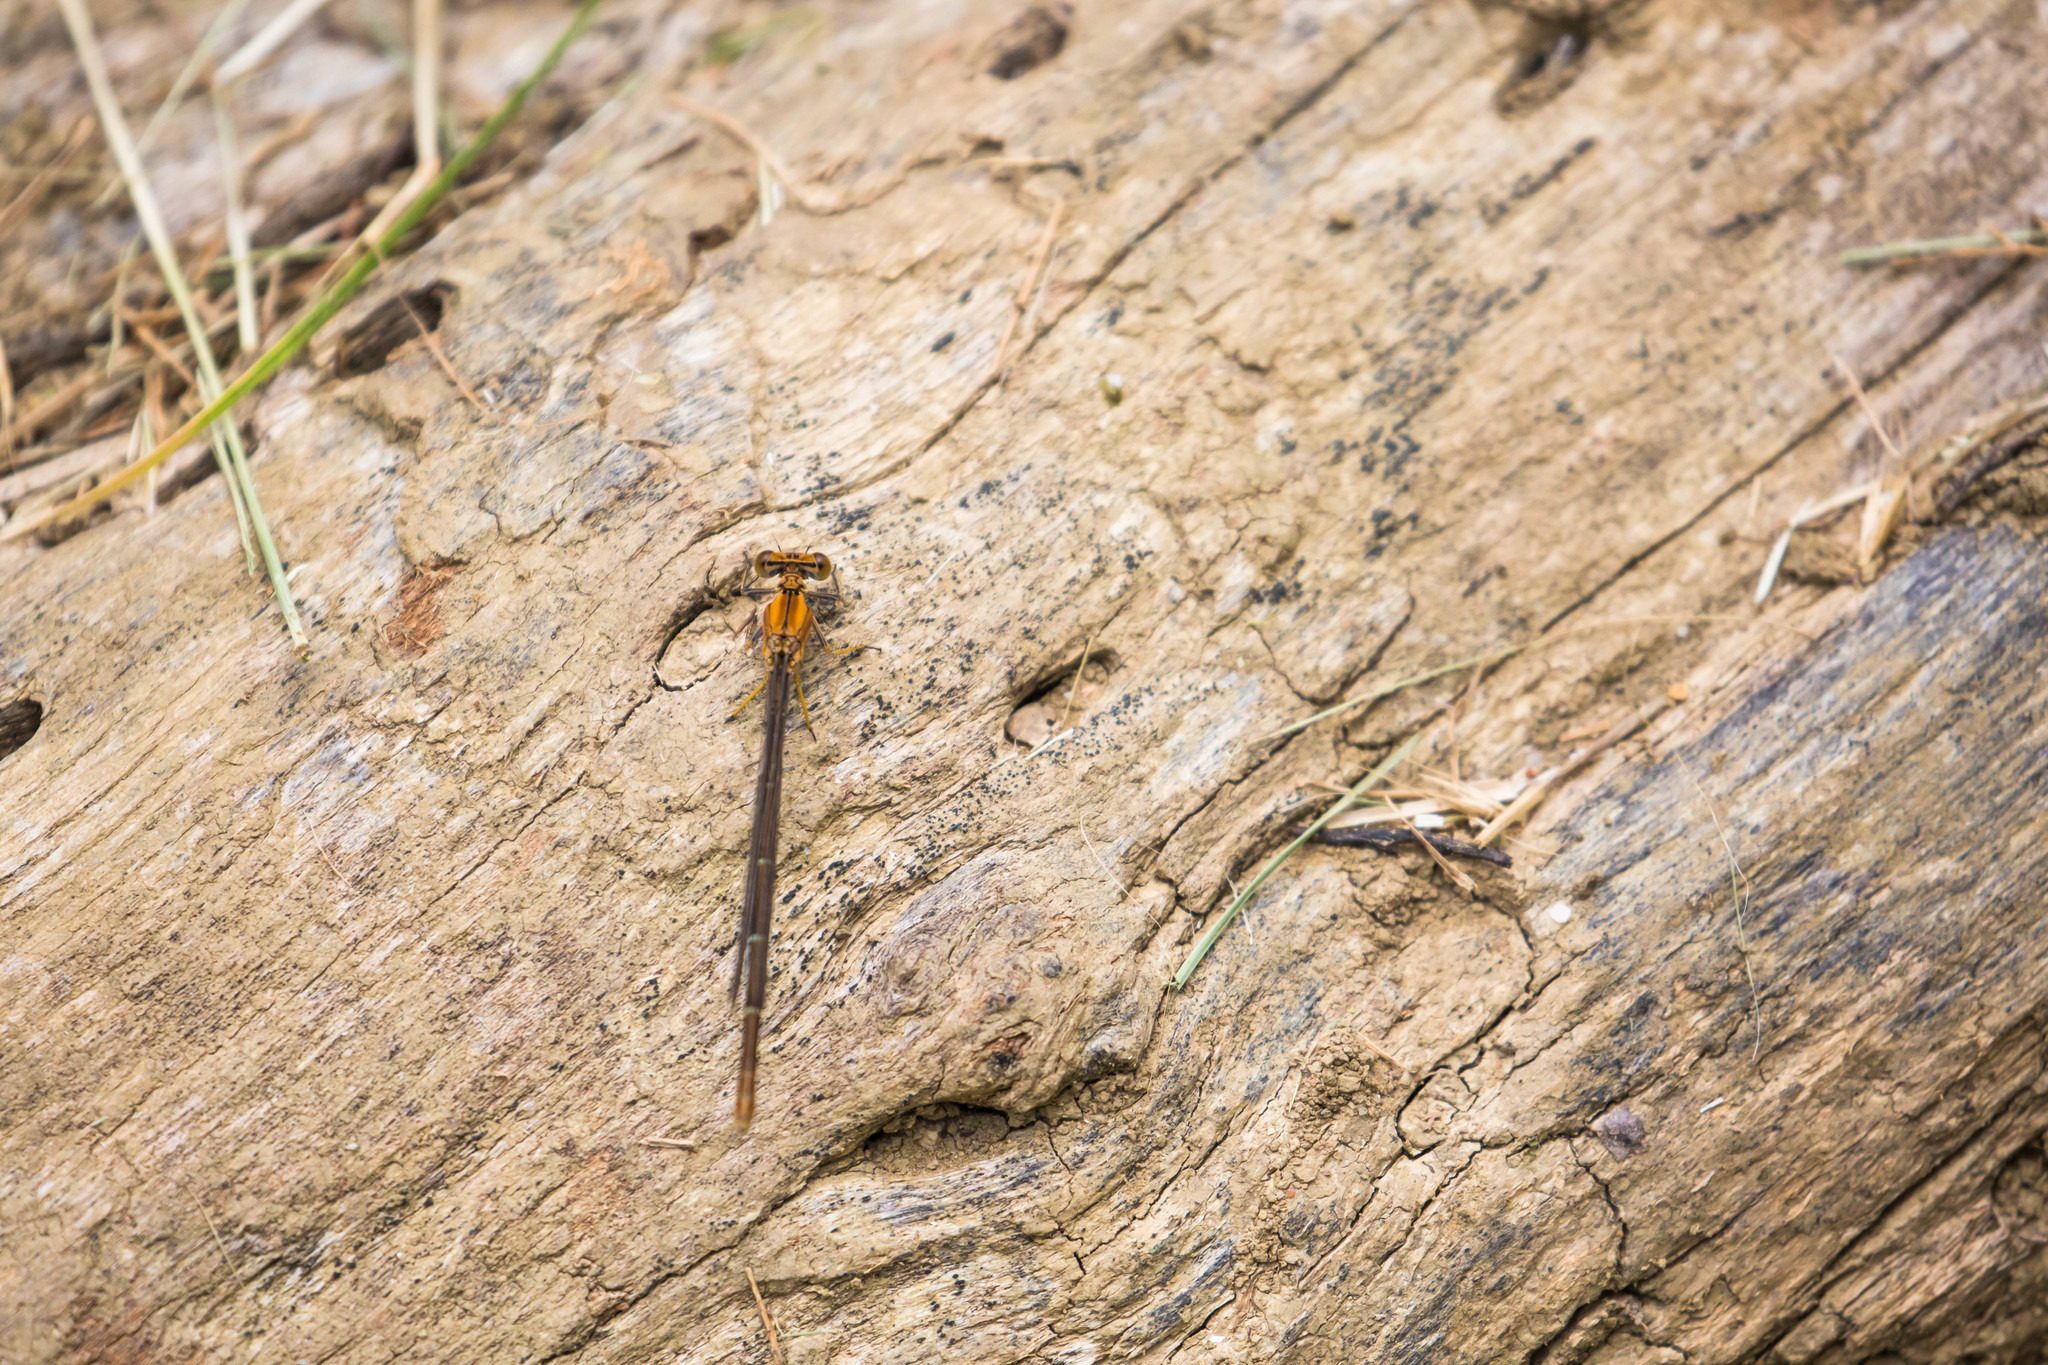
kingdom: Animalia
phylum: Arthropoda
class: Insecta
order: Odonata
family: Coenagrionidae
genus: Argia
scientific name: Argia moesta
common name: Powdered dancer
